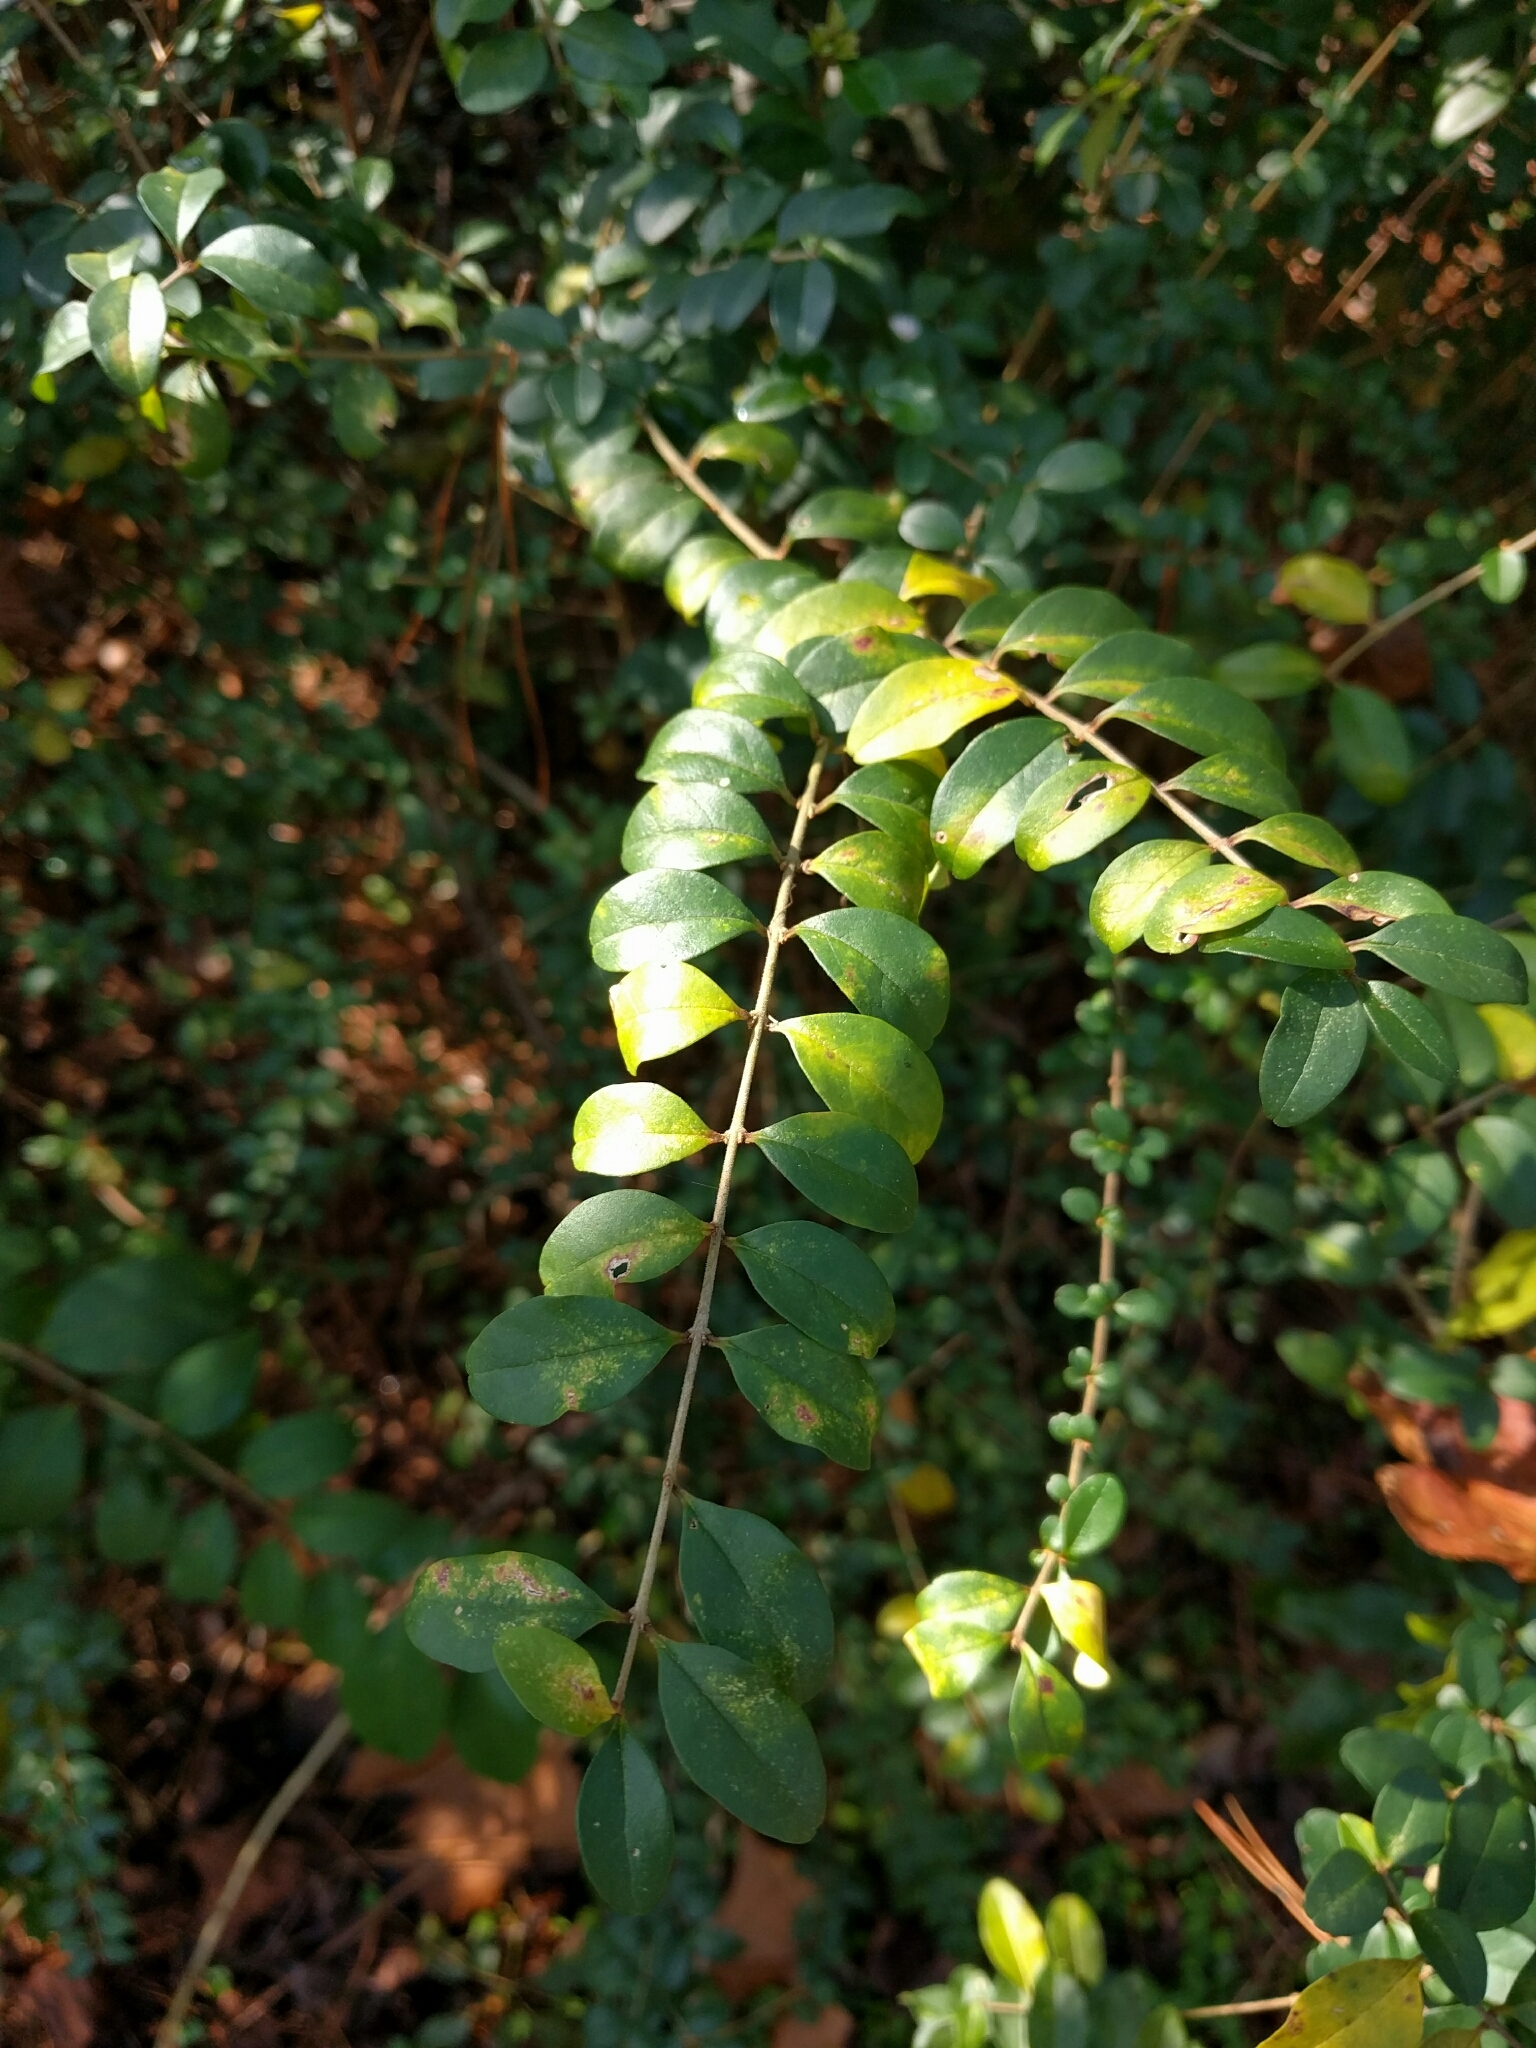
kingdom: Plantae
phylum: Tracheophyta
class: Magnoliopsida
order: Lamiales
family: Oleaceae
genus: Ligustrum
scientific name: Ligustrum sinense
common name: Chinese privet
